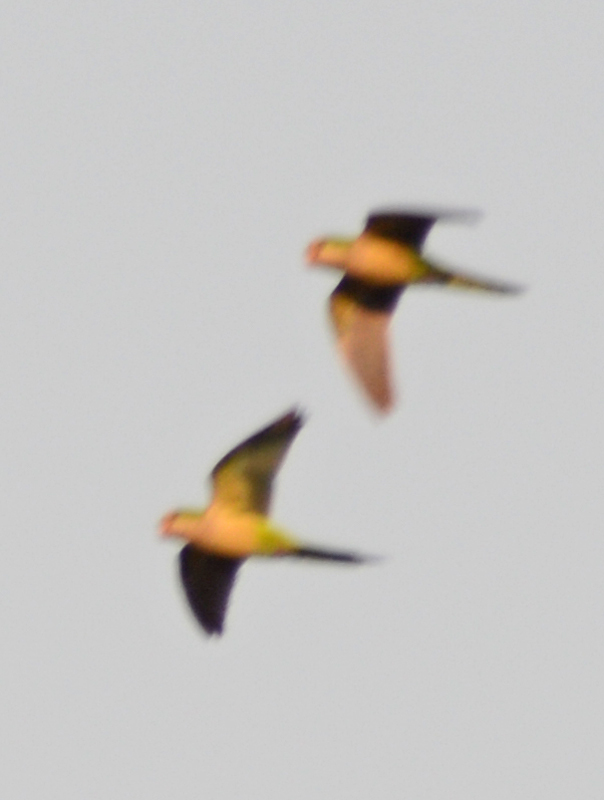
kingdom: Animalia
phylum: Chordata
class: Aves
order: Psittaciformes
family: Psittacidae
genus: Myiopsitta
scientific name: Myiopsitta monachus
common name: Monk parakeet
